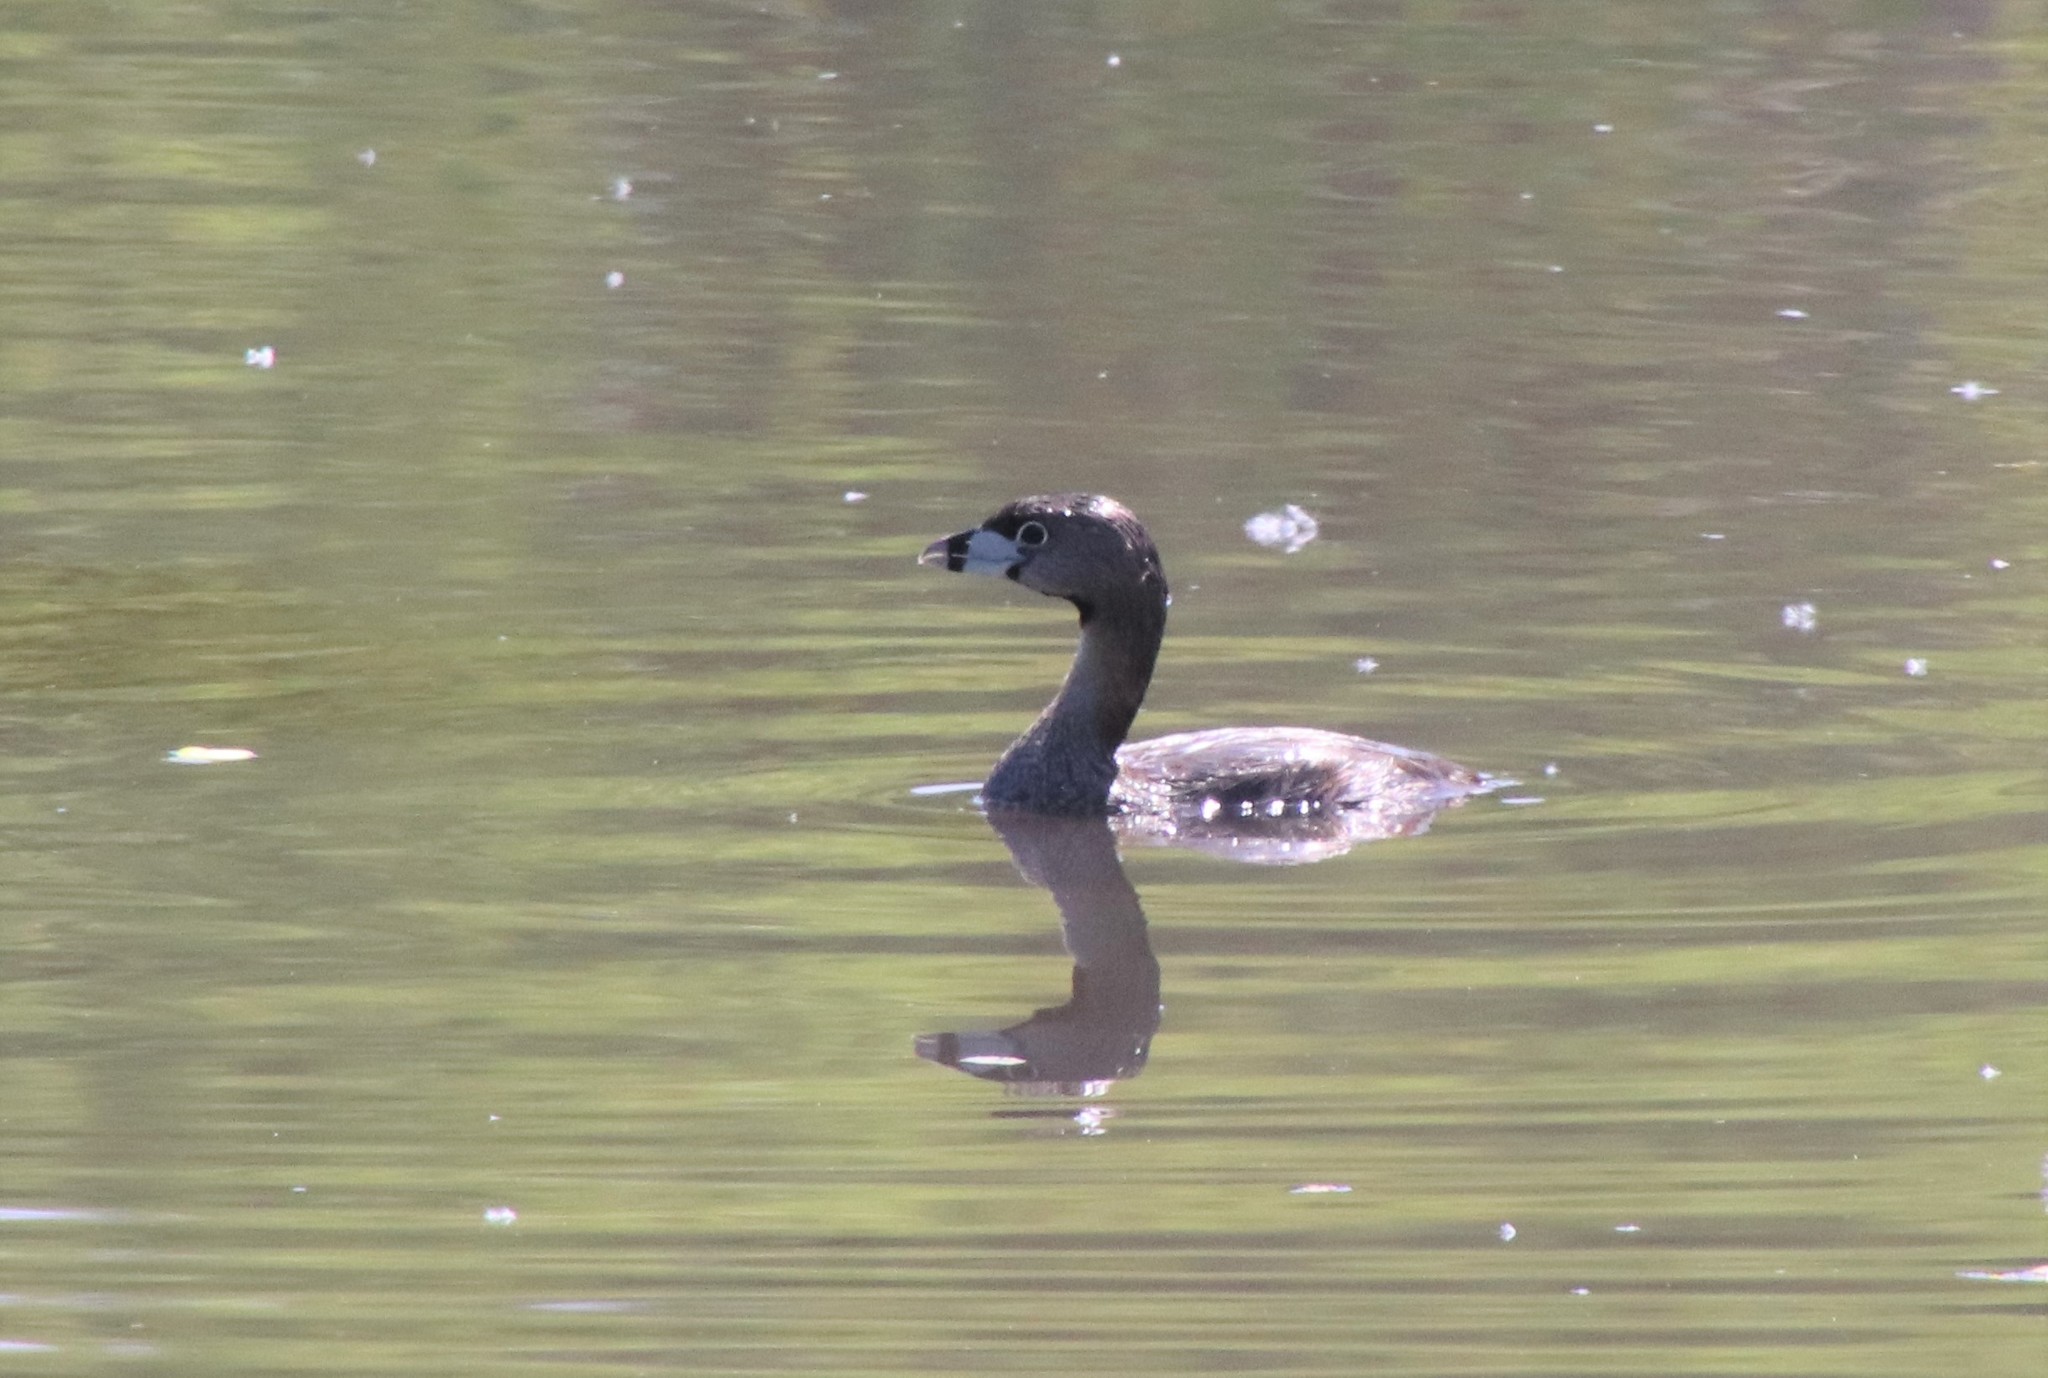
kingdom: Animalia
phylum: Chordata
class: Aves
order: Podicipediformes
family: Podicipedidae
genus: Podilymbus
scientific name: Podilymbus podiceps
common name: Pied-billed grebe
